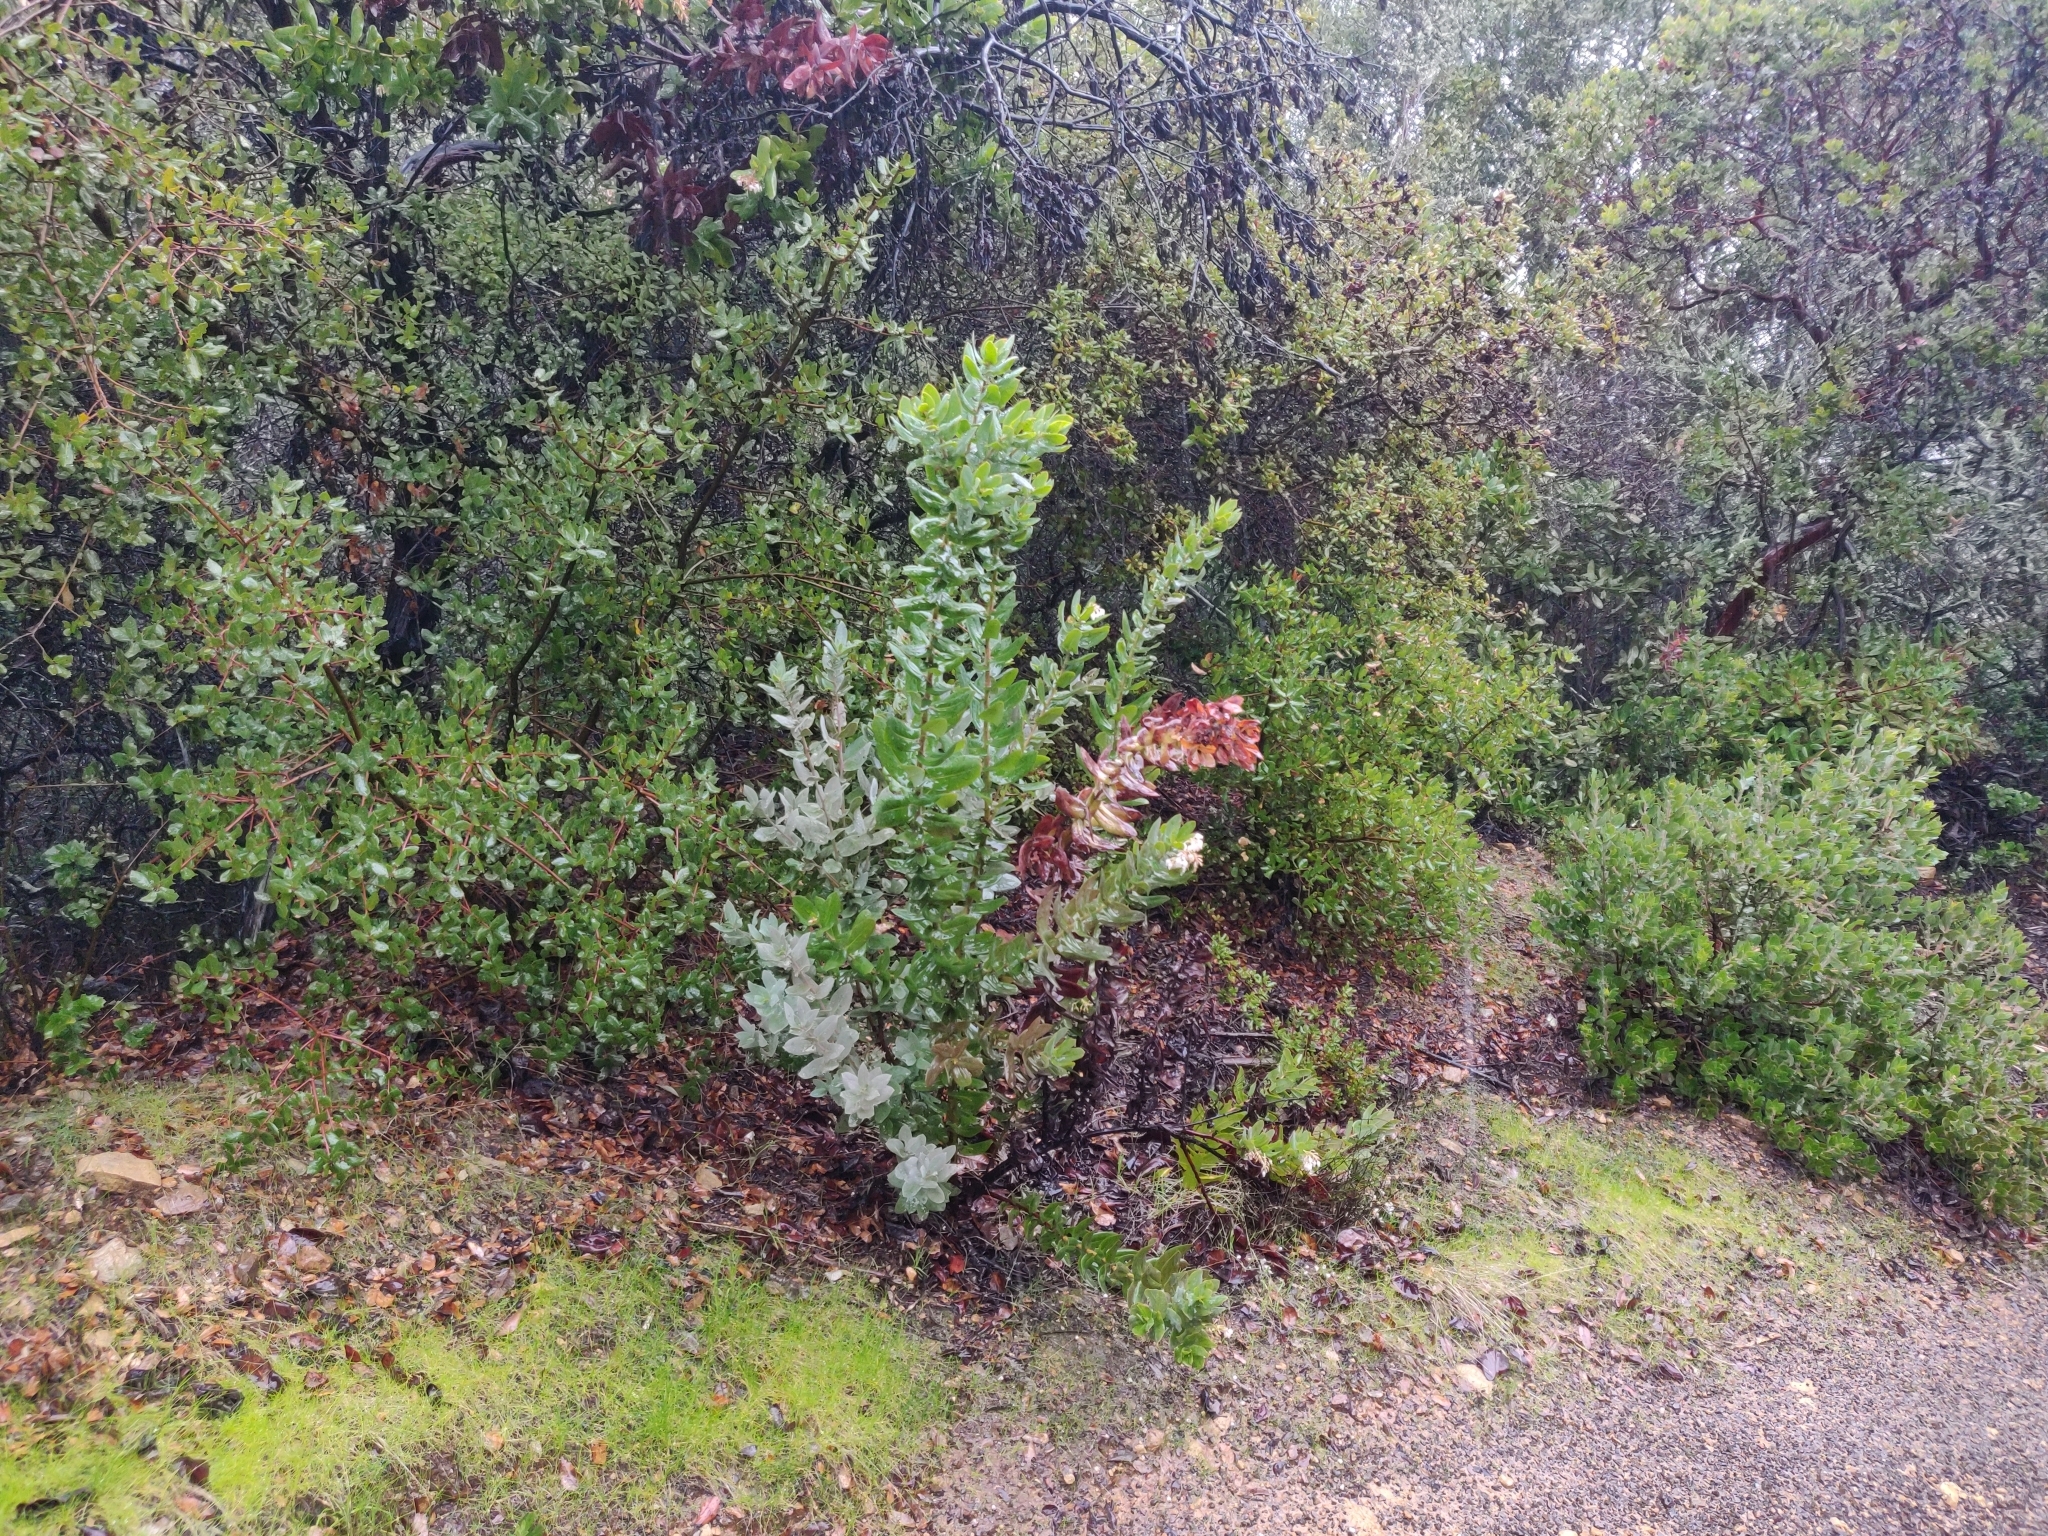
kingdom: Plantae
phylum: Tracheophyta
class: Magnoliopsida
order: Ericales
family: Ericaceae
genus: Arctostaphylos
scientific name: Arctostaphylos andersonii
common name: Santa cruz manzanita
